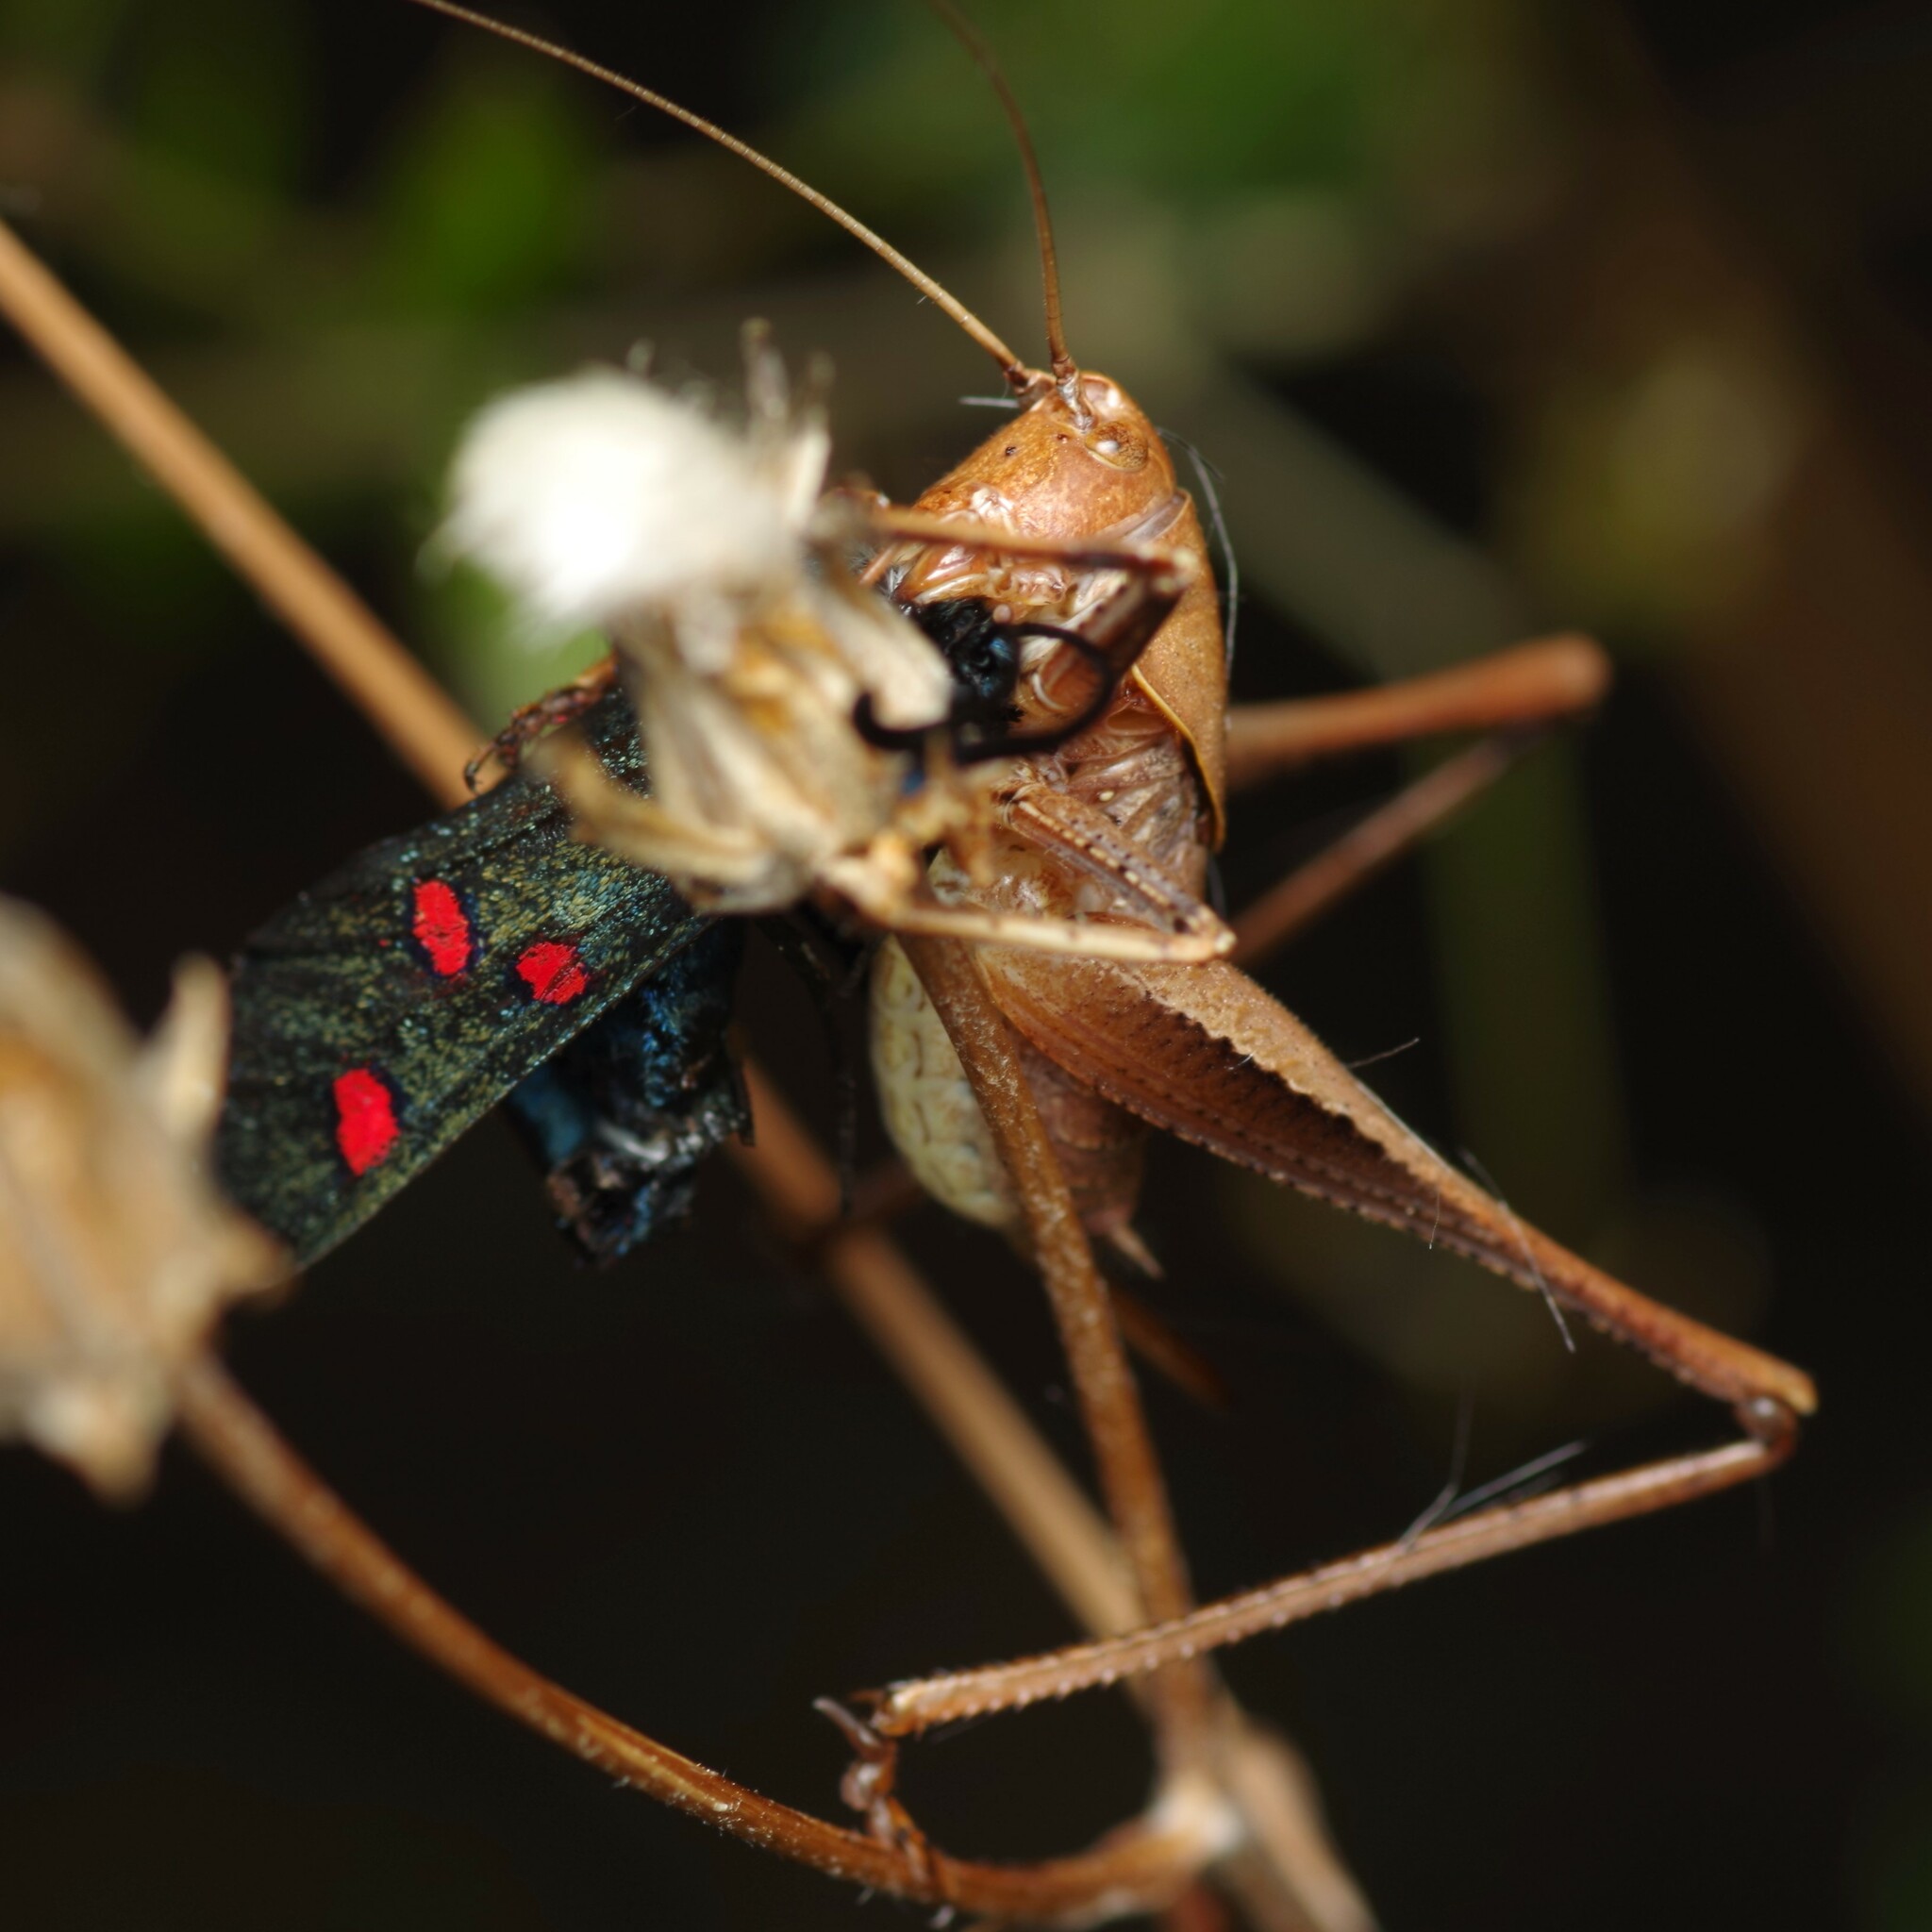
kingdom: Animalia
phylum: Arthropoda
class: Insecta
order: Lepidoptera
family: Zygaenidae
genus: Zygaena
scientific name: Zygaena lavandulae
